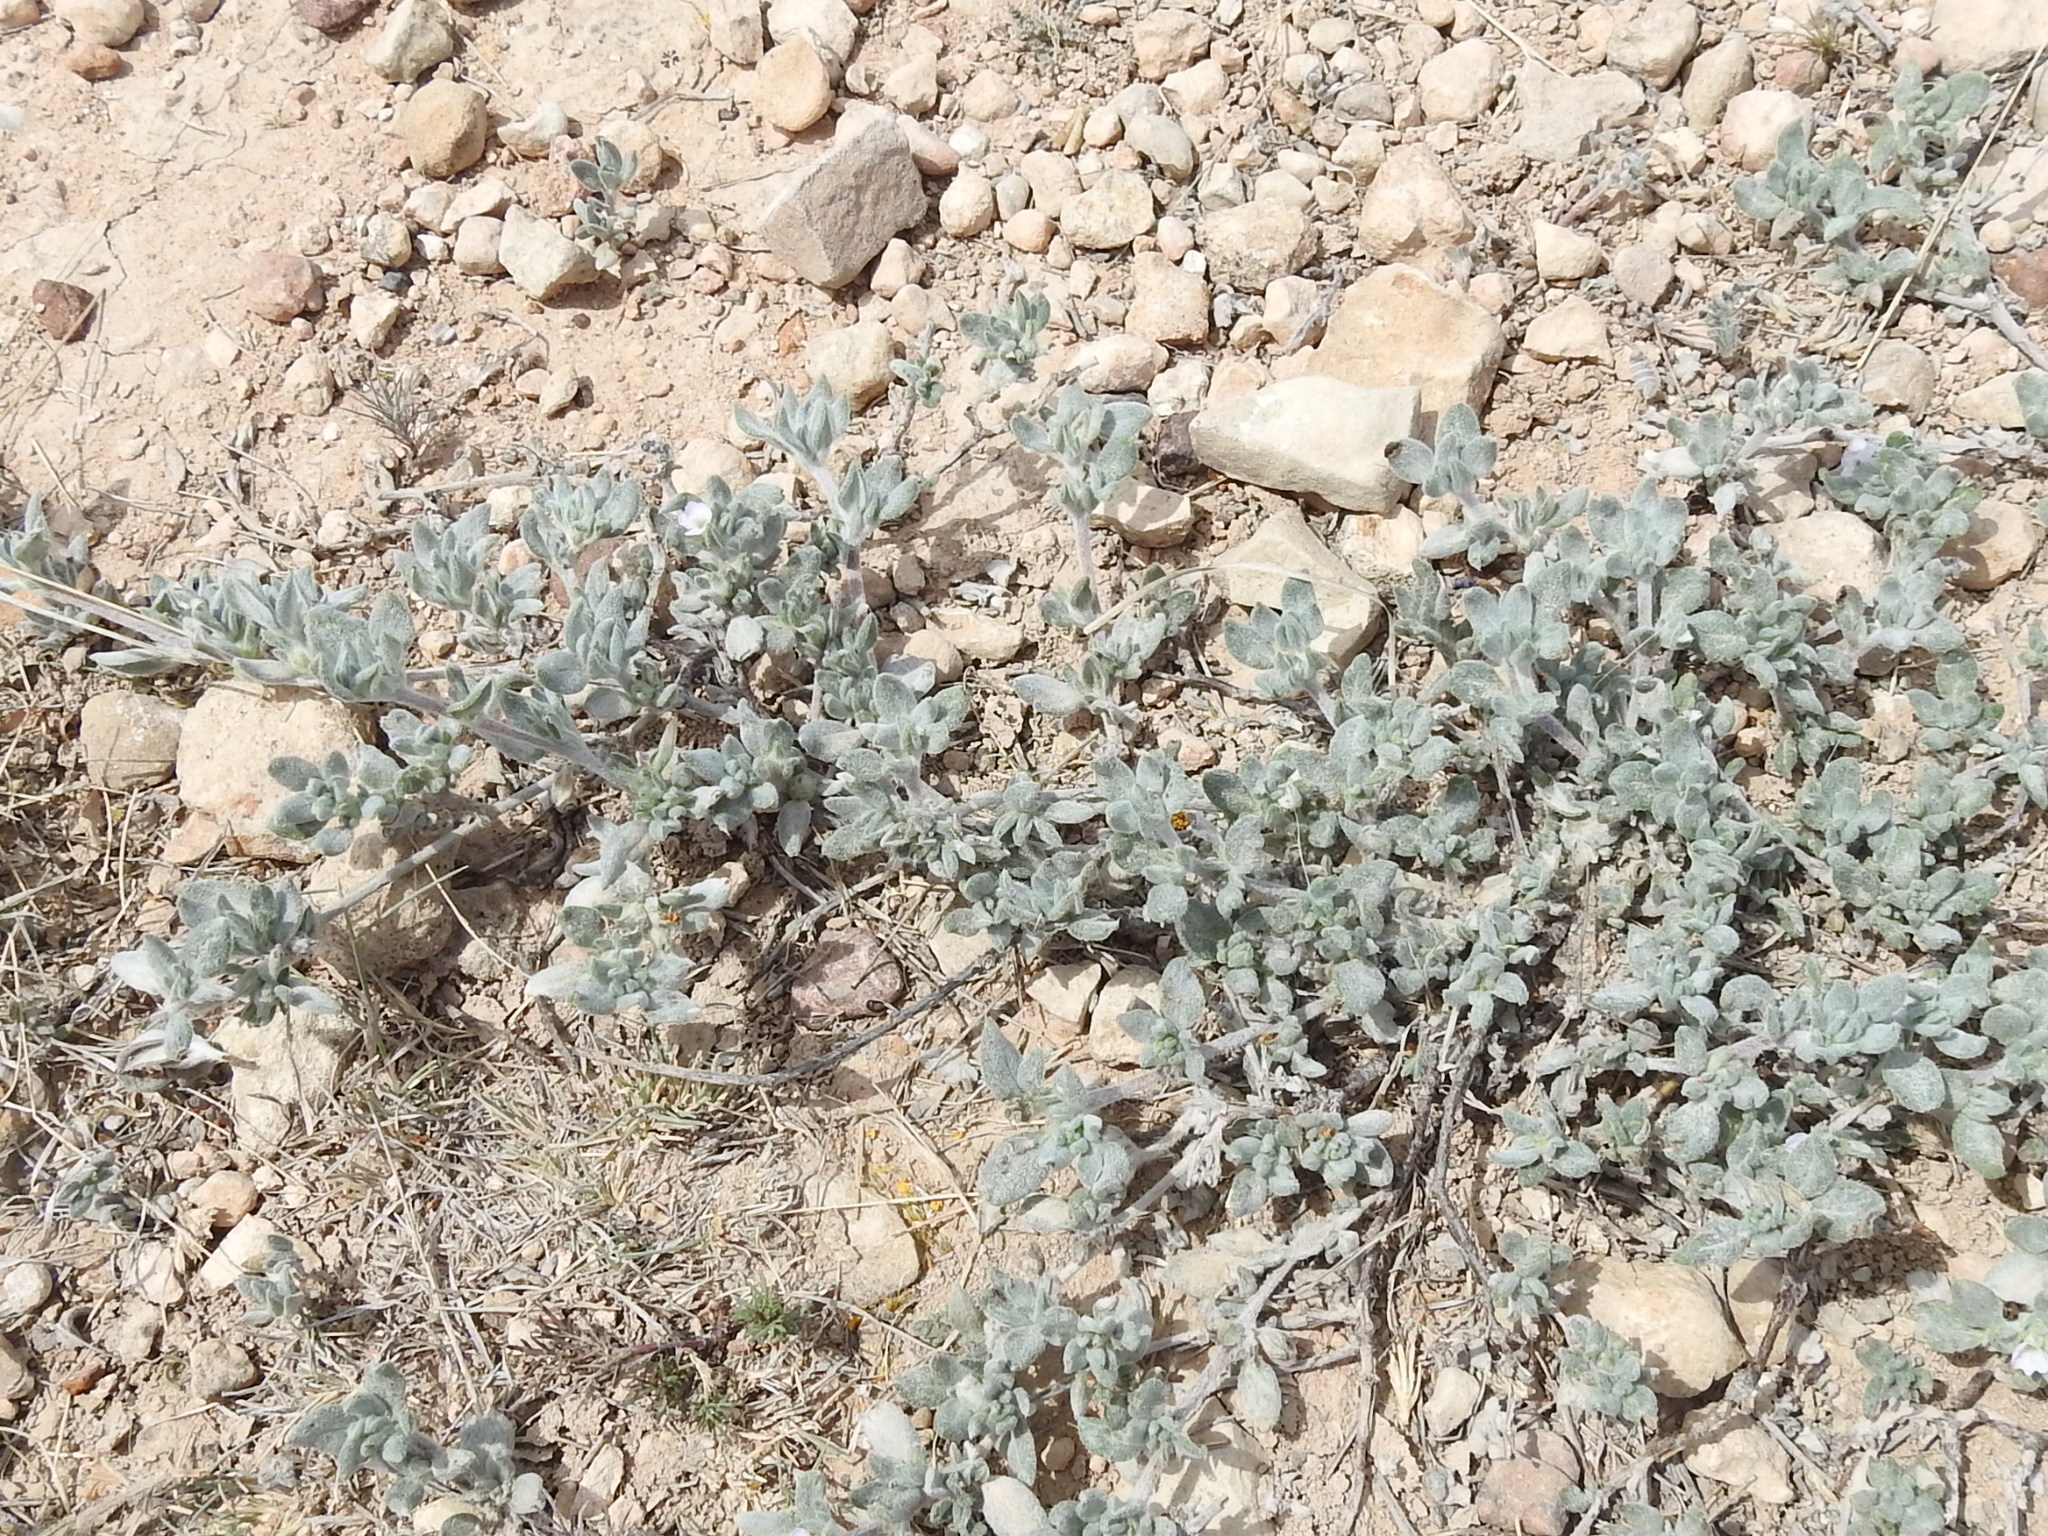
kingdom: Plantae
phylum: Tracheophyta
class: Magnoliopsida
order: Boraginales
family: Ehretiaceae
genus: Tiquilia
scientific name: Tiquilia canescens
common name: Hairy tiquilia
